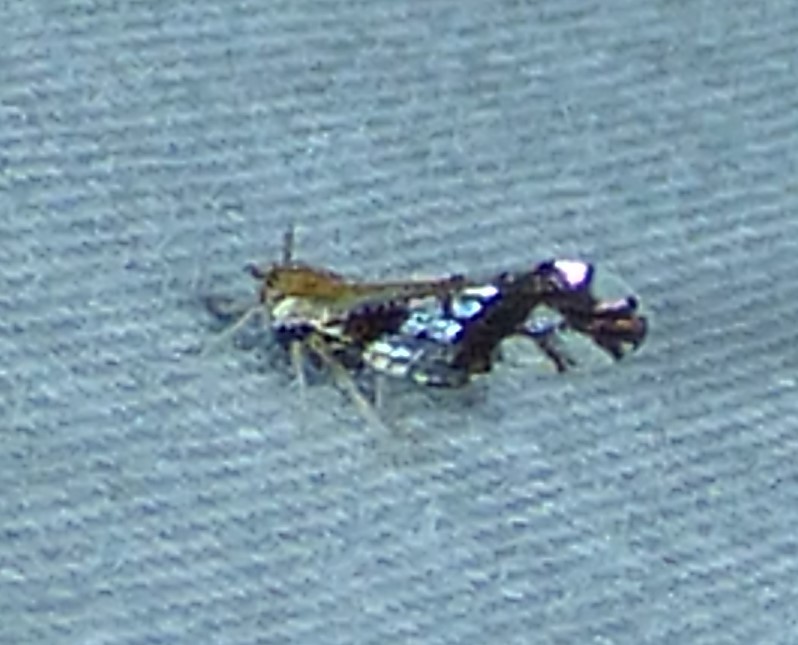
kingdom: Animalia
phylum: Arthropoda
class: Insecta
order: Hemiptera
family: Delphacidae
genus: Liburniella
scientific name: Liburniella ornata
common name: Ornate planthopper
